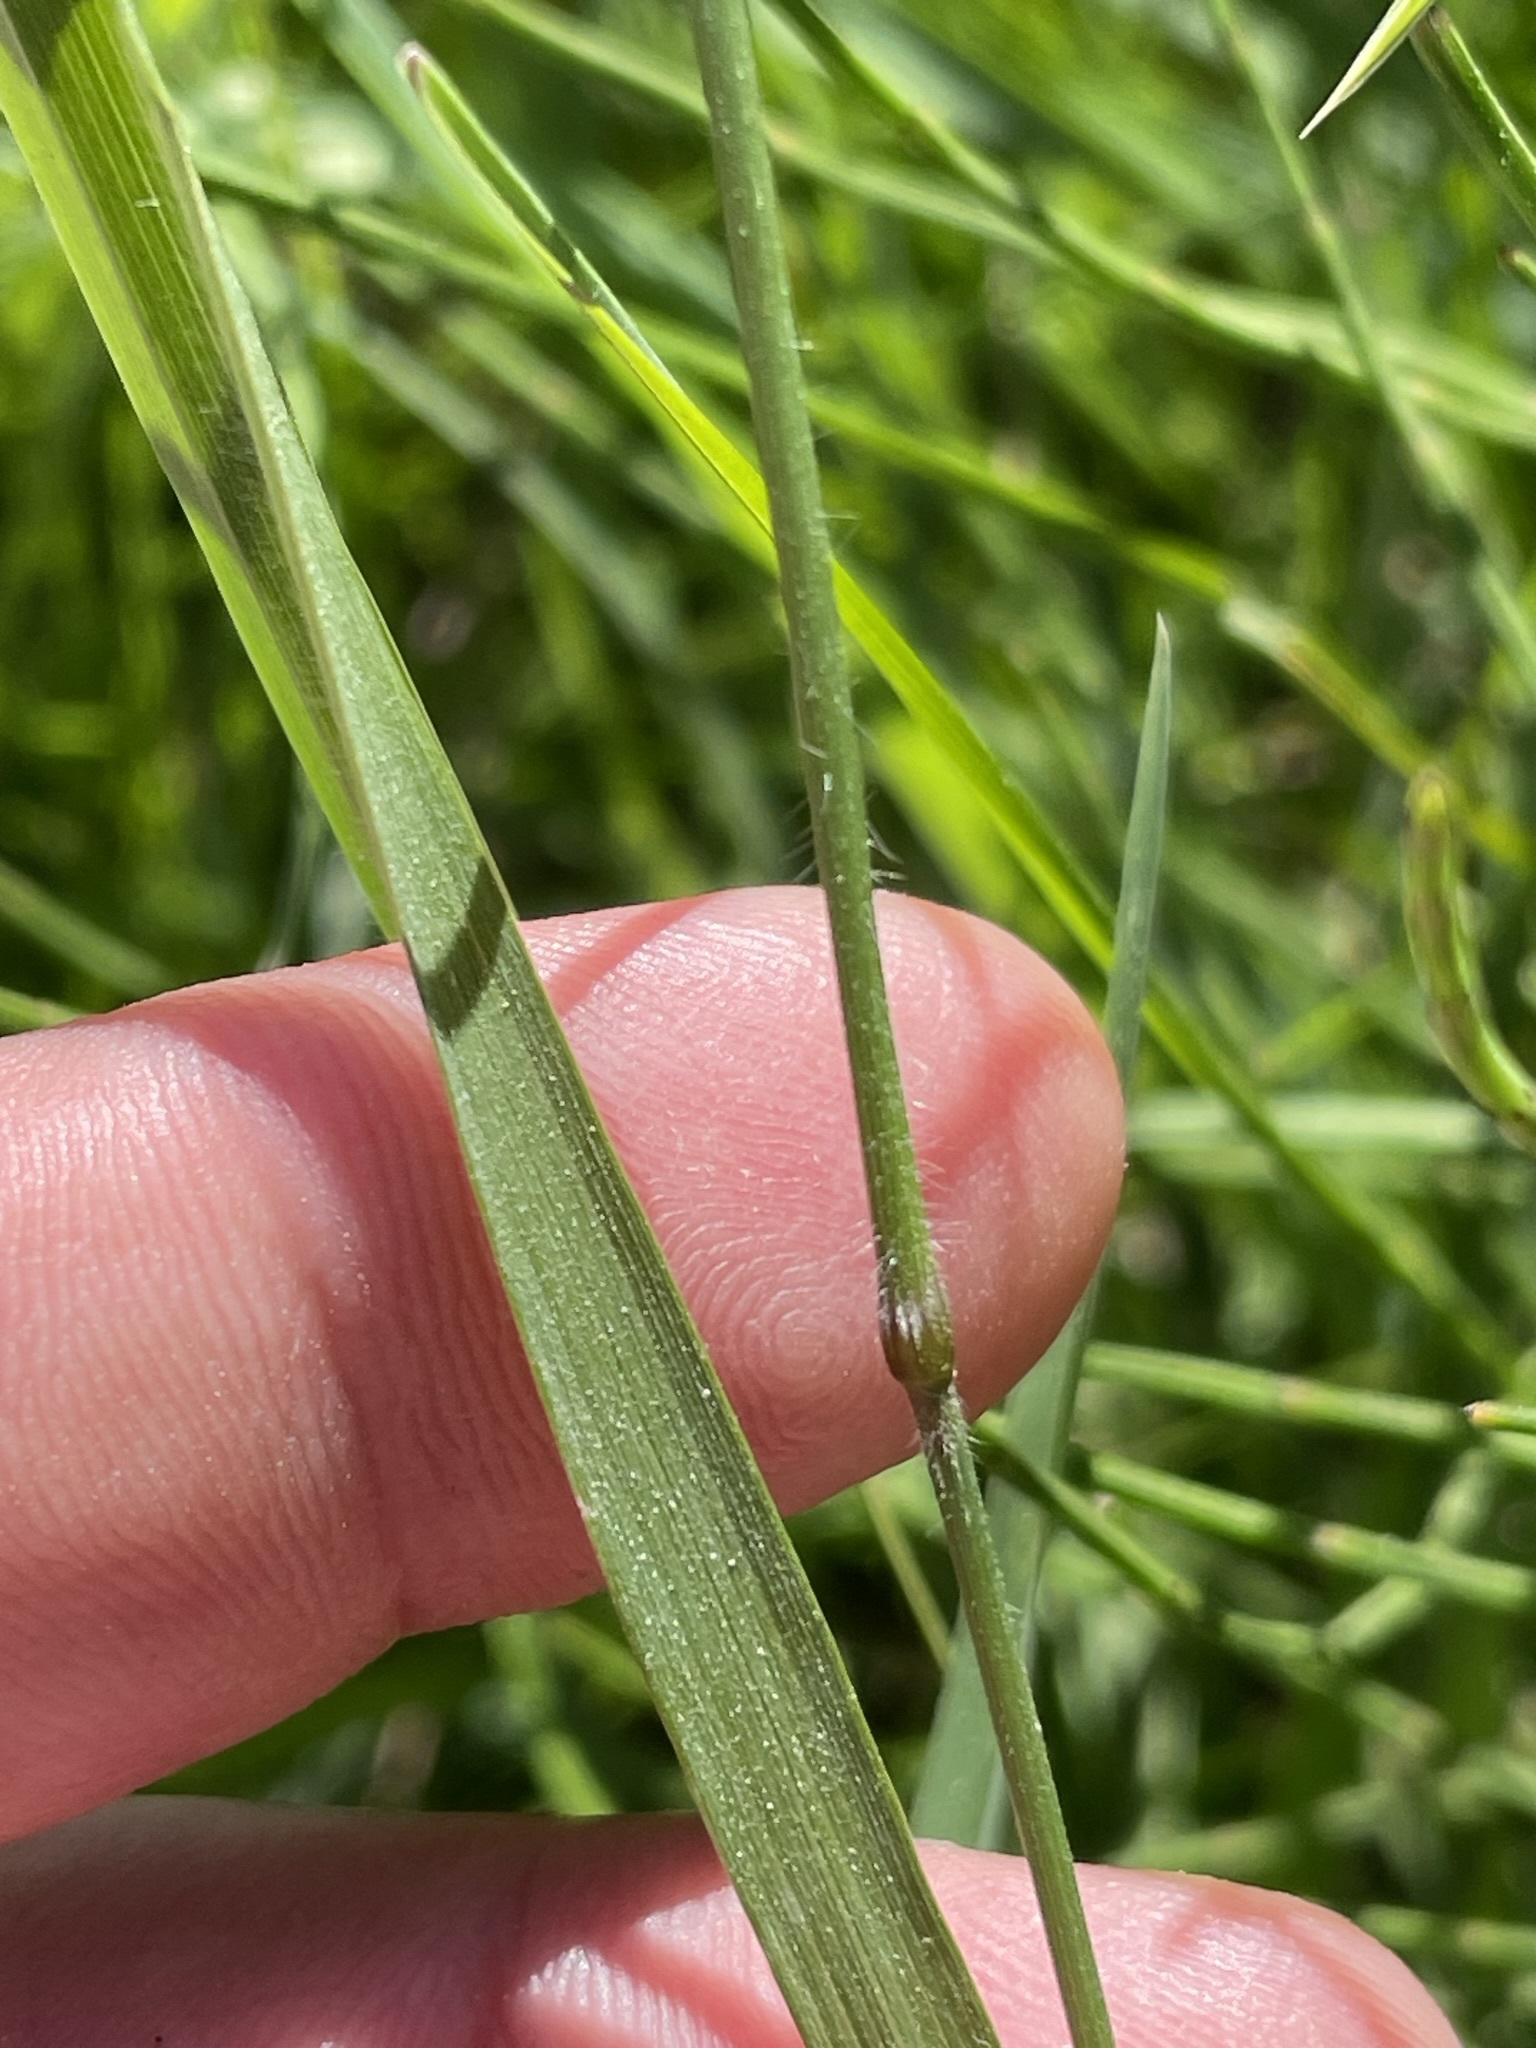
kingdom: Plantae
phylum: Tracheophyta
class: Liliopsida
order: Poales
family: Poaceae
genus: Trisetum
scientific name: Trisetum flavescens
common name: Yellow oat-grass
